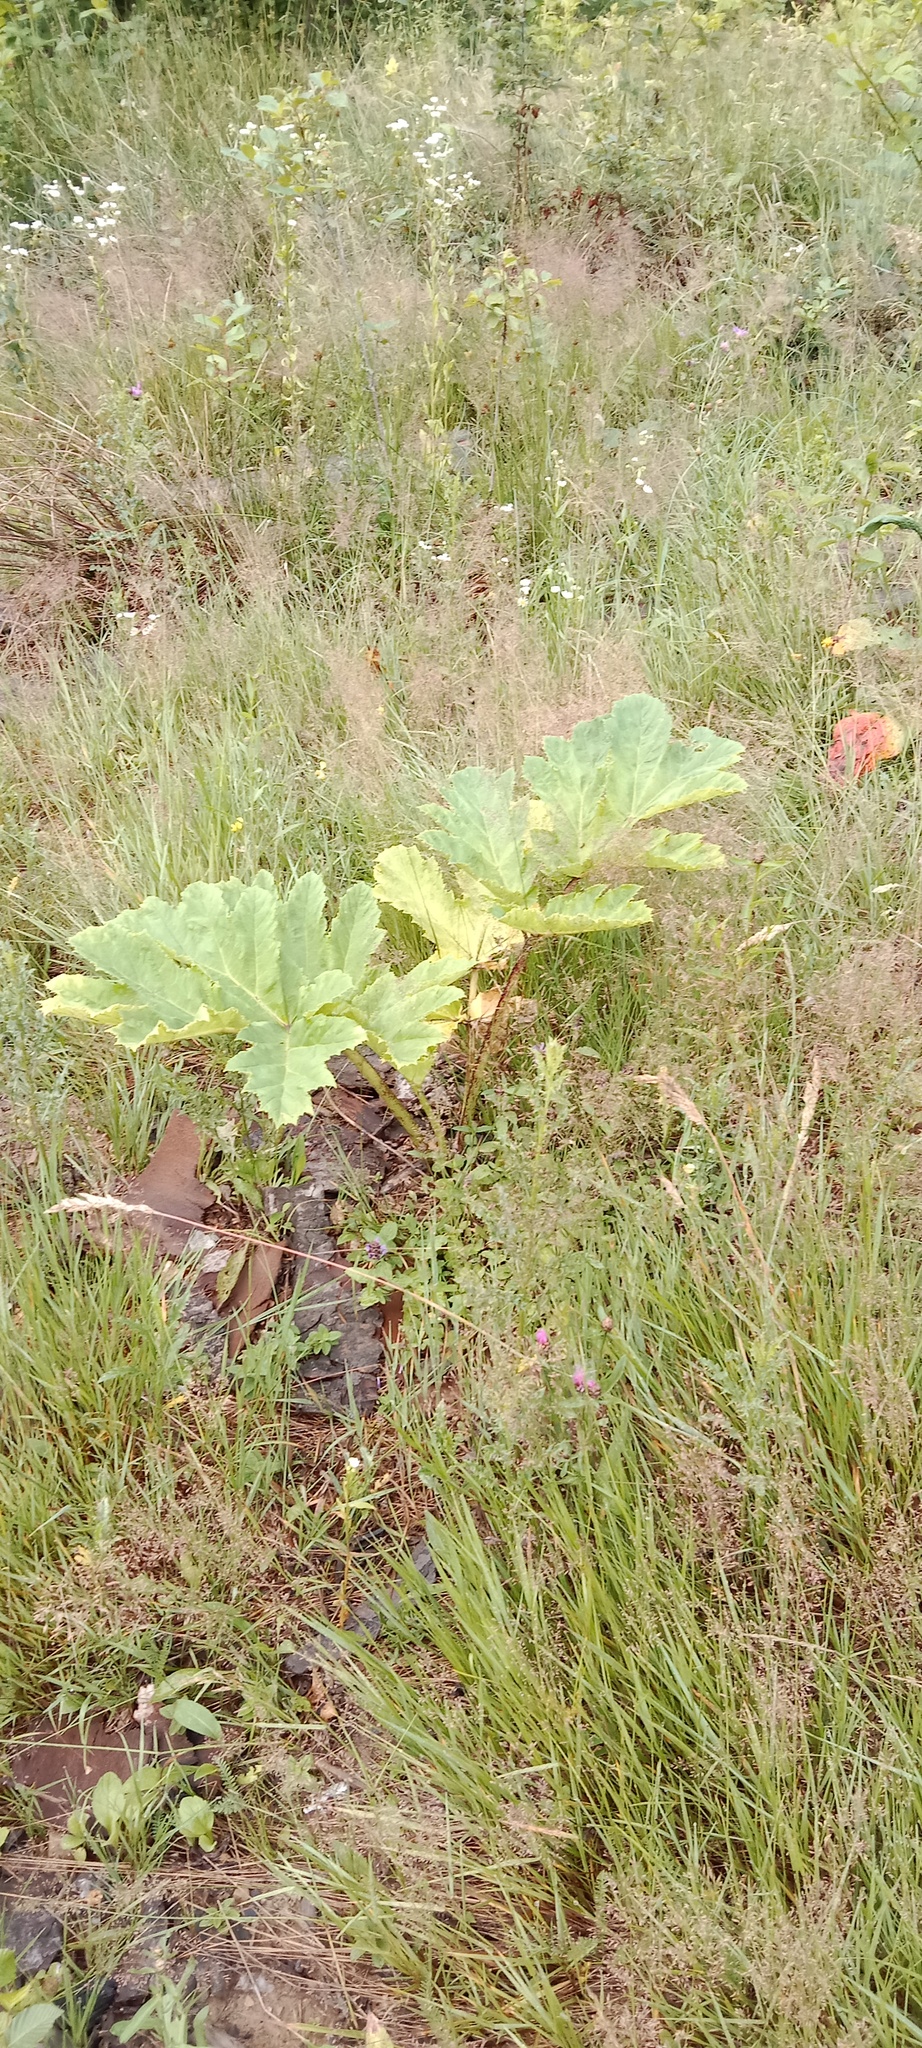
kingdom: Plantae
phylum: Tracheophyta
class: Magnoliopsida
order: Apiales
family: Apiaceae
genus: Heracleum
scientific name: Heracleum sosnowskyi
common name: Sosnowsky's hogweed
